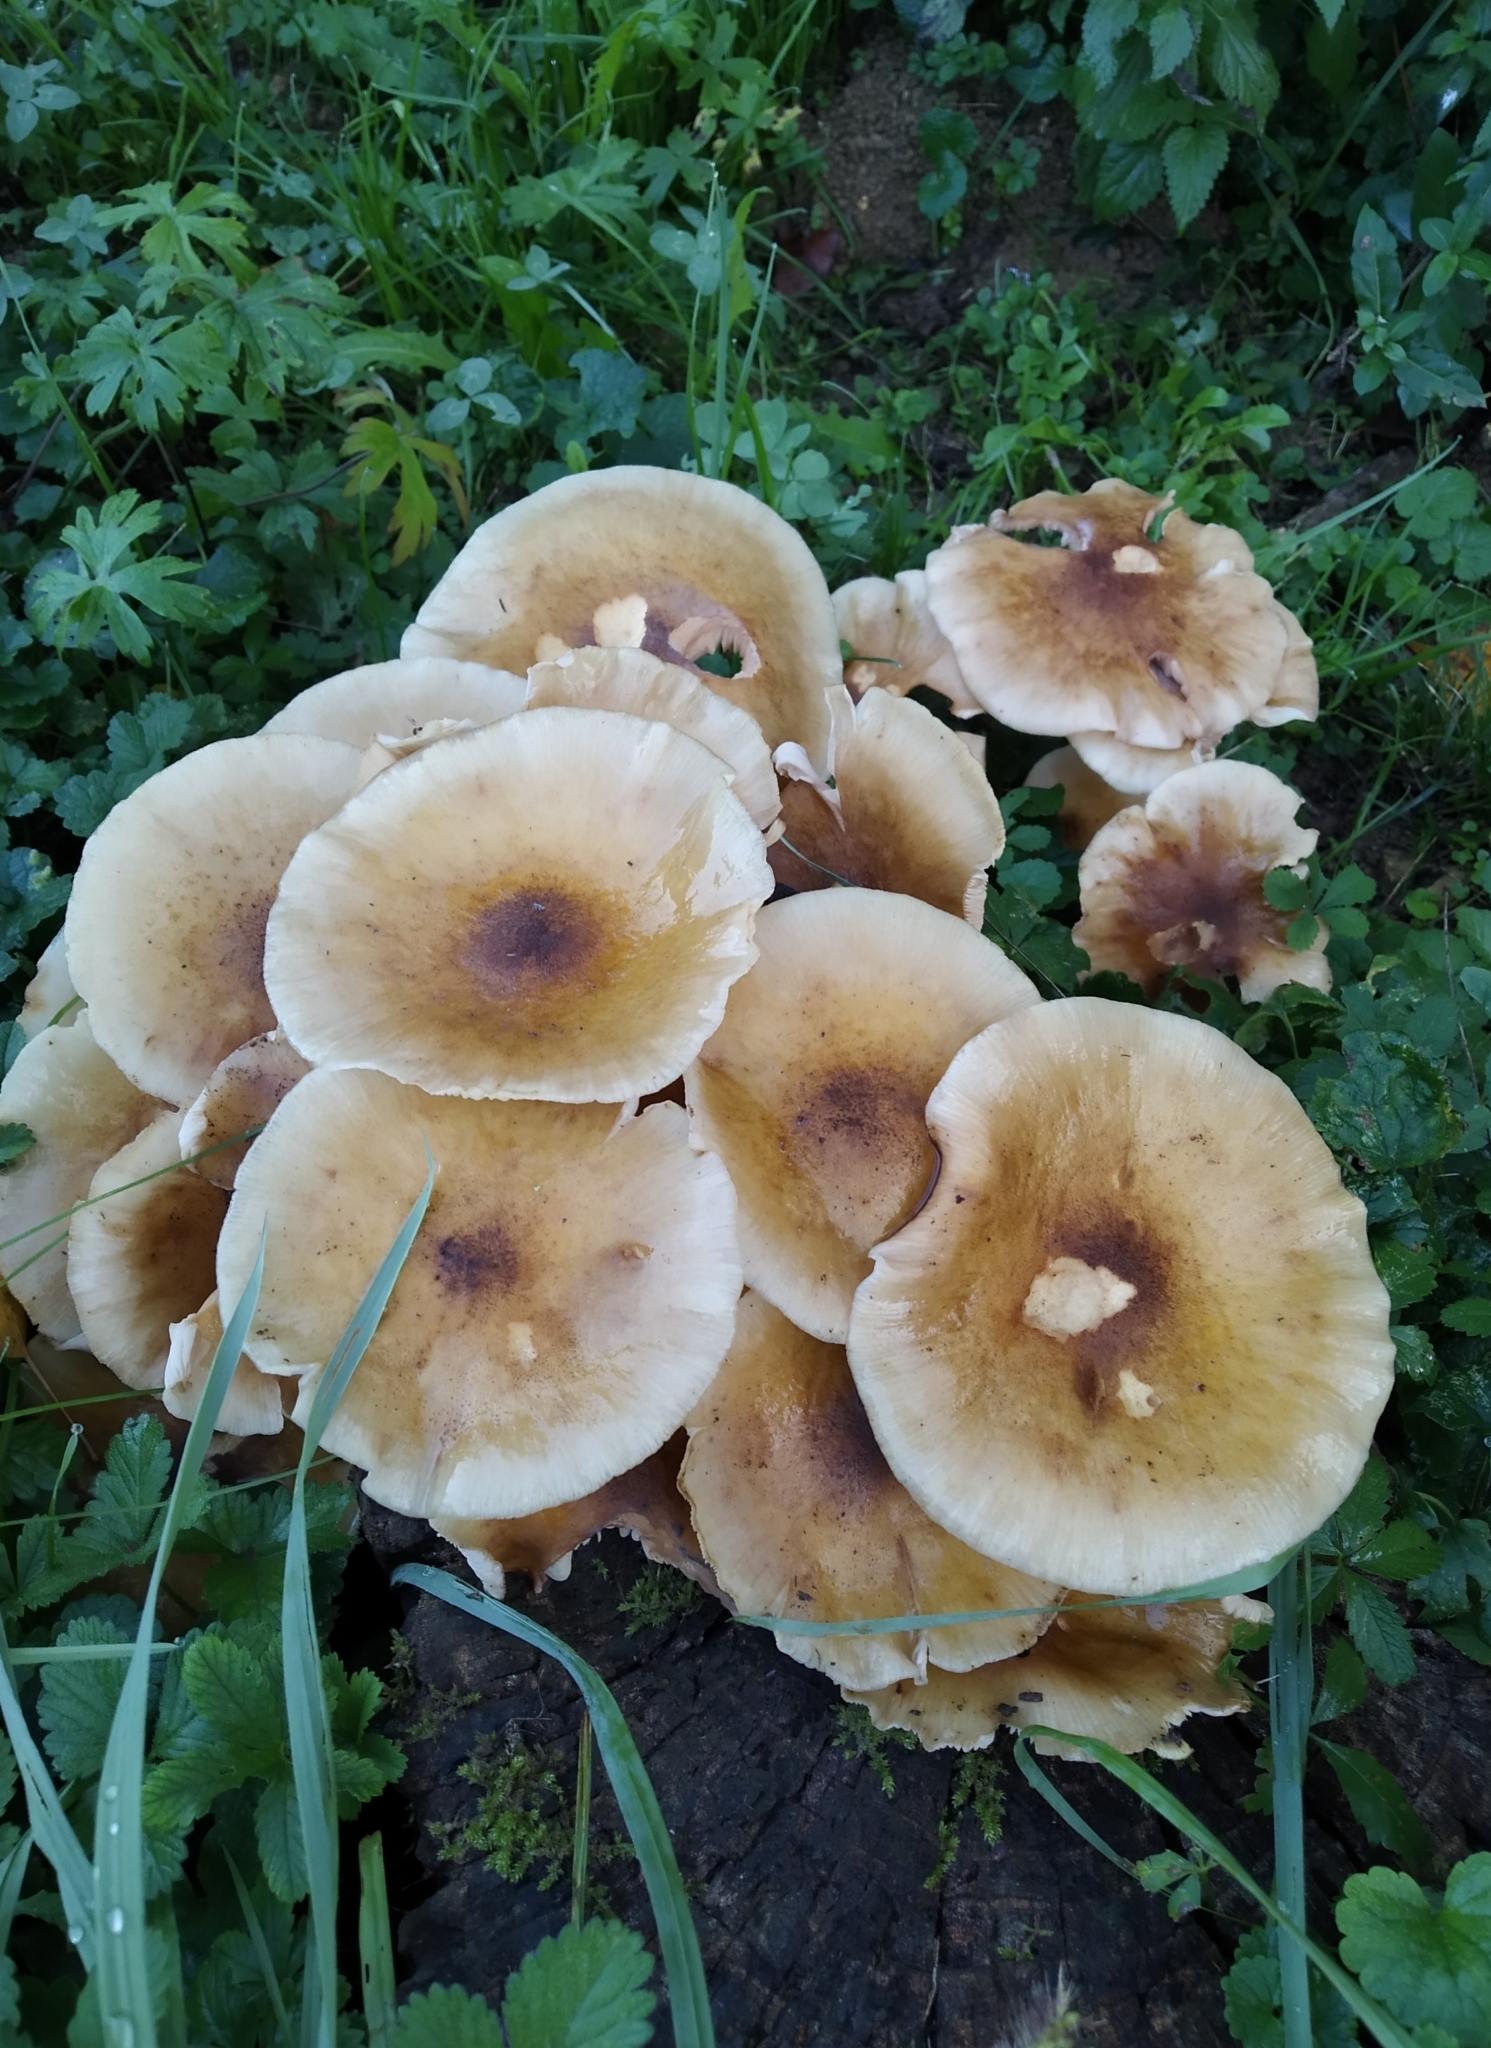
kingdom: Fungi
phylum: Basidiomycota
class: Agaricomycetes
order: Agaricales
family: Physalacriaceae
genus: Armillaria
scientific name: Armillaria mellea
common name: Honey fungus
